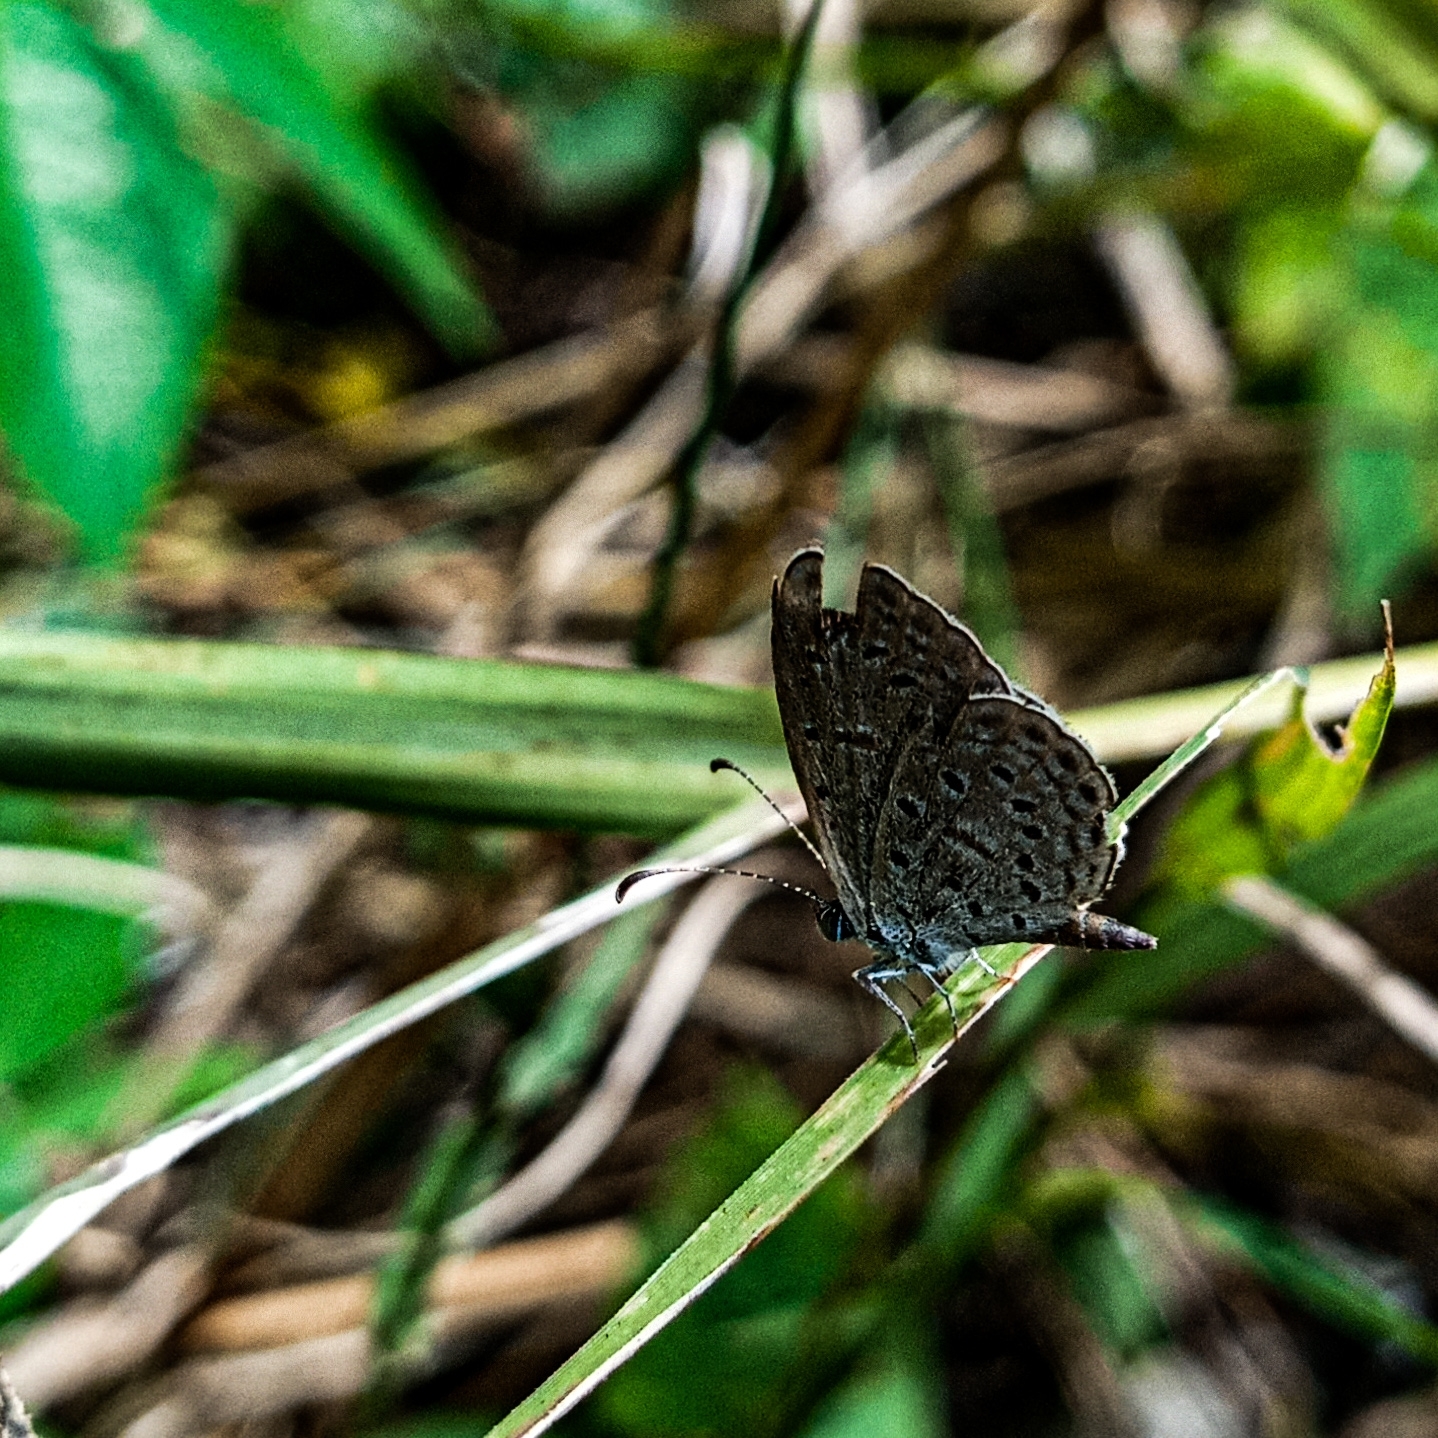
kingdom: Animalia
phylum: Arthropoda
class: Insecta
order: Lepidoptera
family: Lycaenidae
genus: Pseudozizeeria
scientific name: Pseudozizeeria maha
